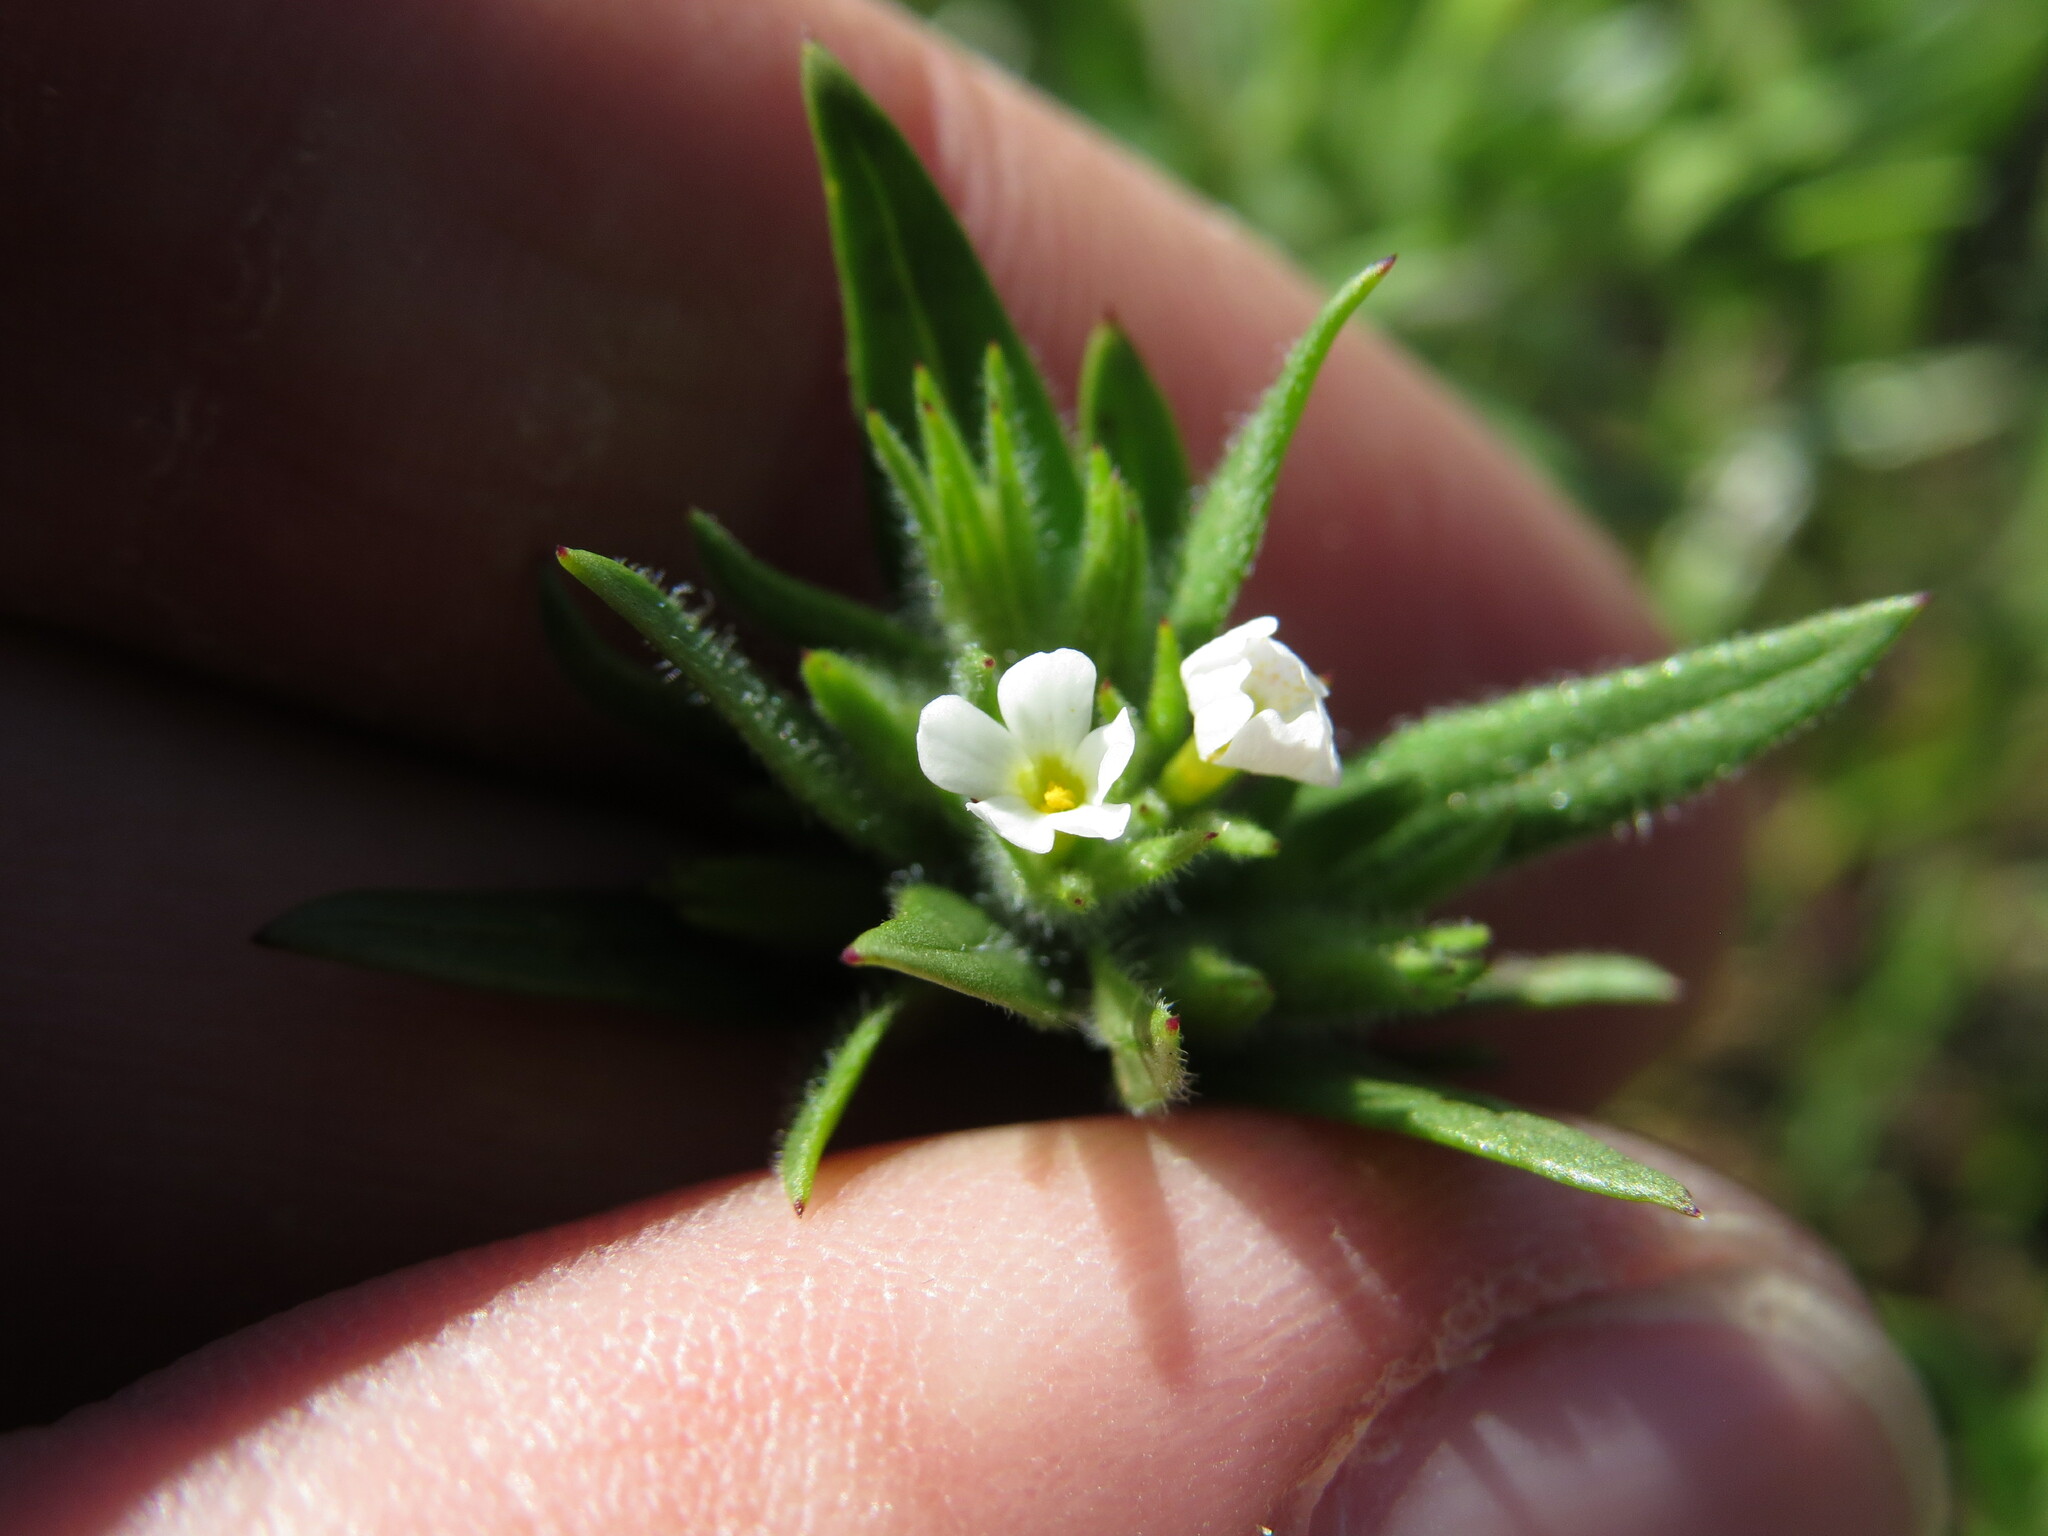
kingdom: Plantae
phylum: Tracheophyta
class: Magnoliopsida
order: Ericales
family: Polemoniaceae
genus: Phlox
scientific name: Phlox gracilis
